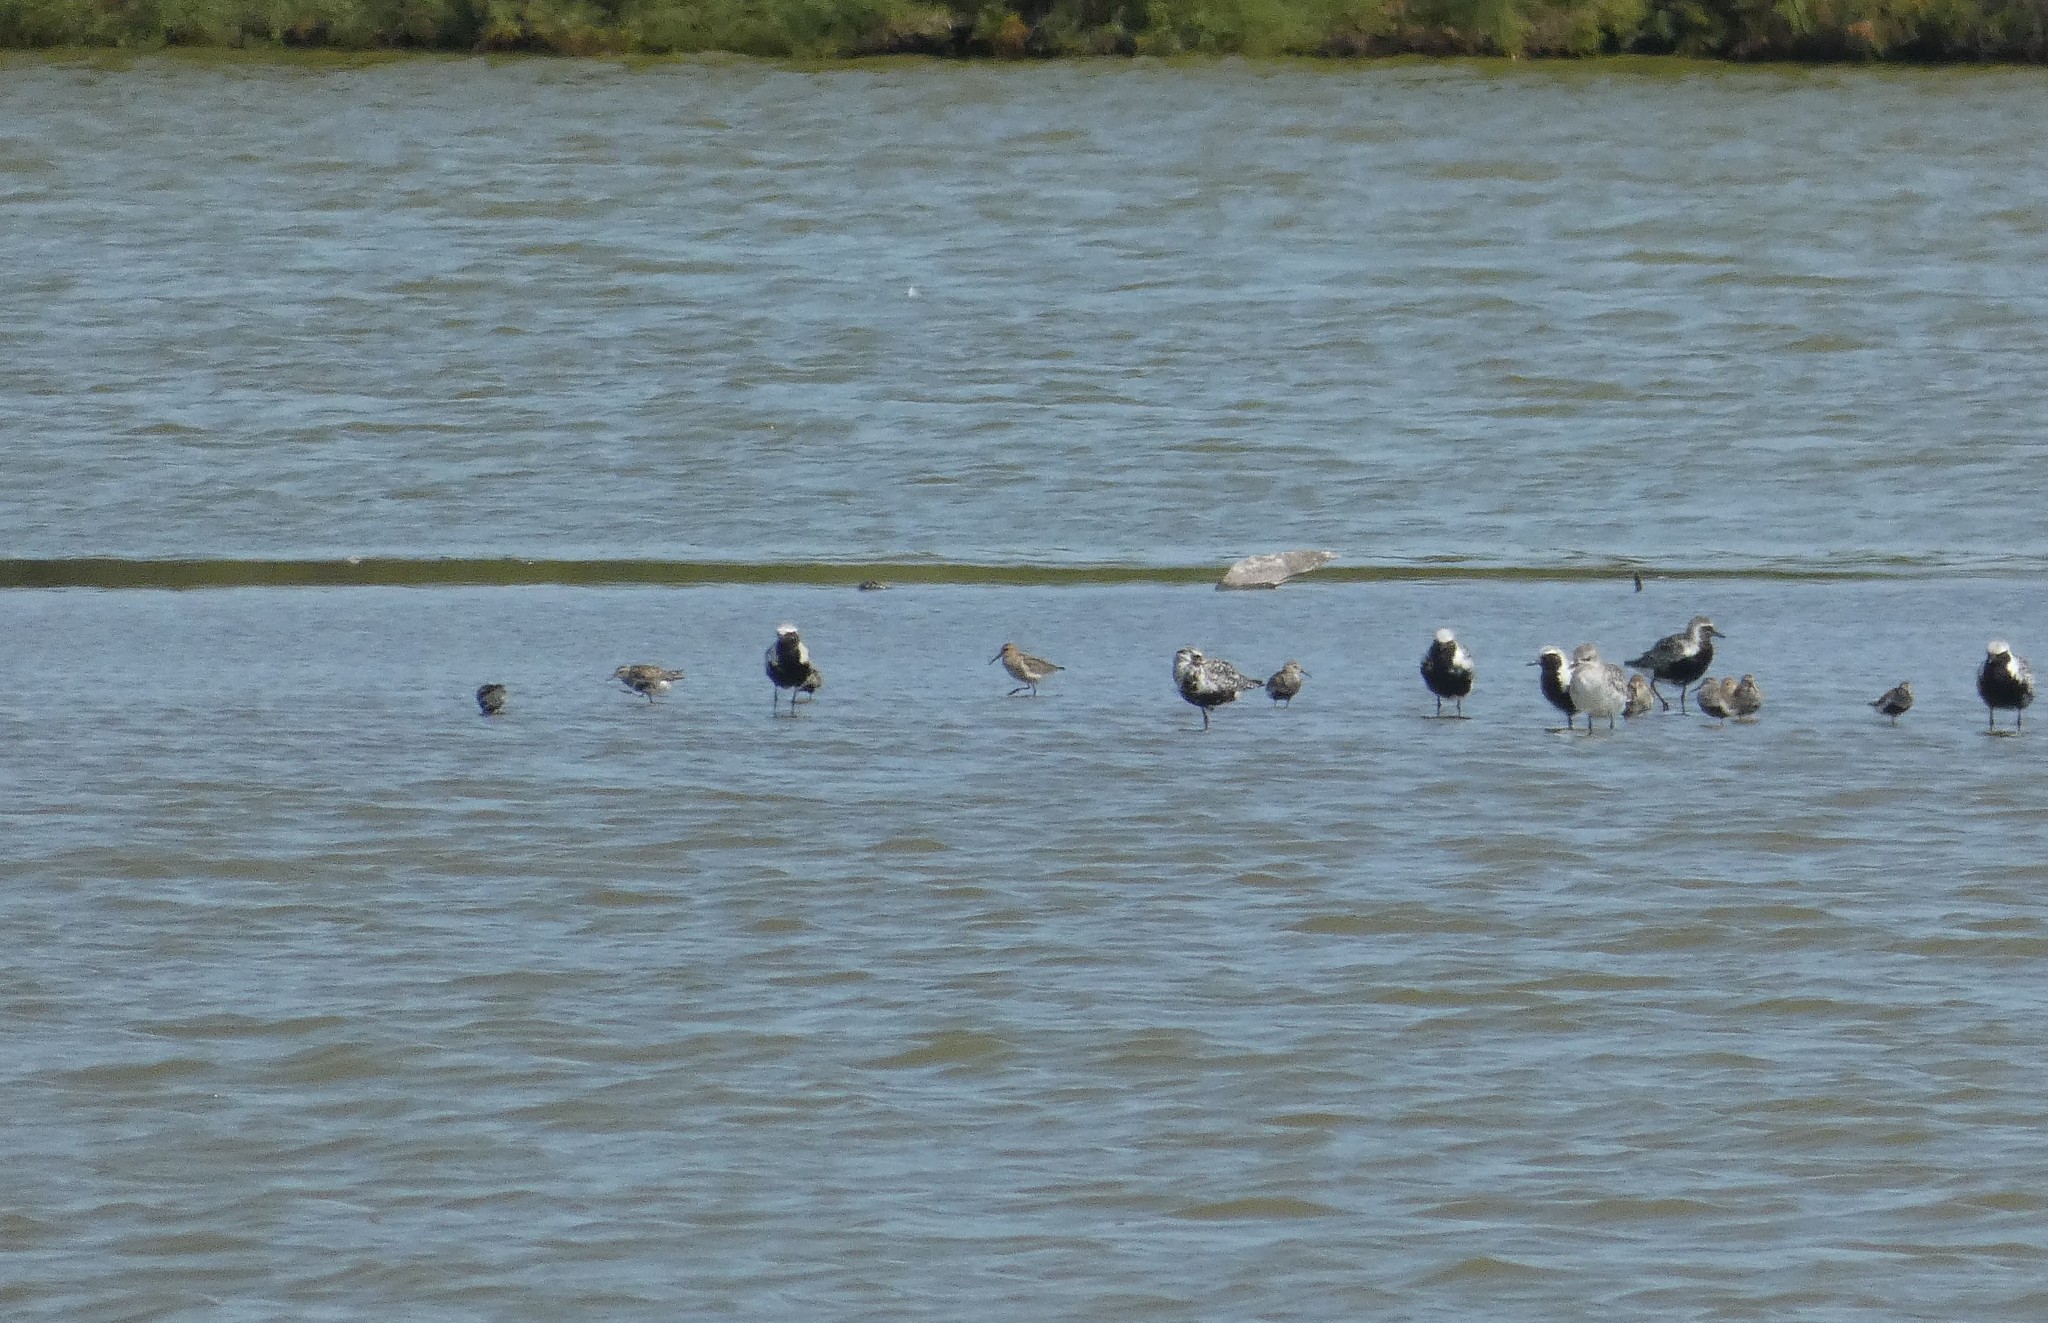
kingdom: Animalia
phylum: Chordata
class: Aves
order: Charadriiformes
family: Scolopacidae
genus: Calidris
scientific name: Calidris alpina
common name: Dunlin
